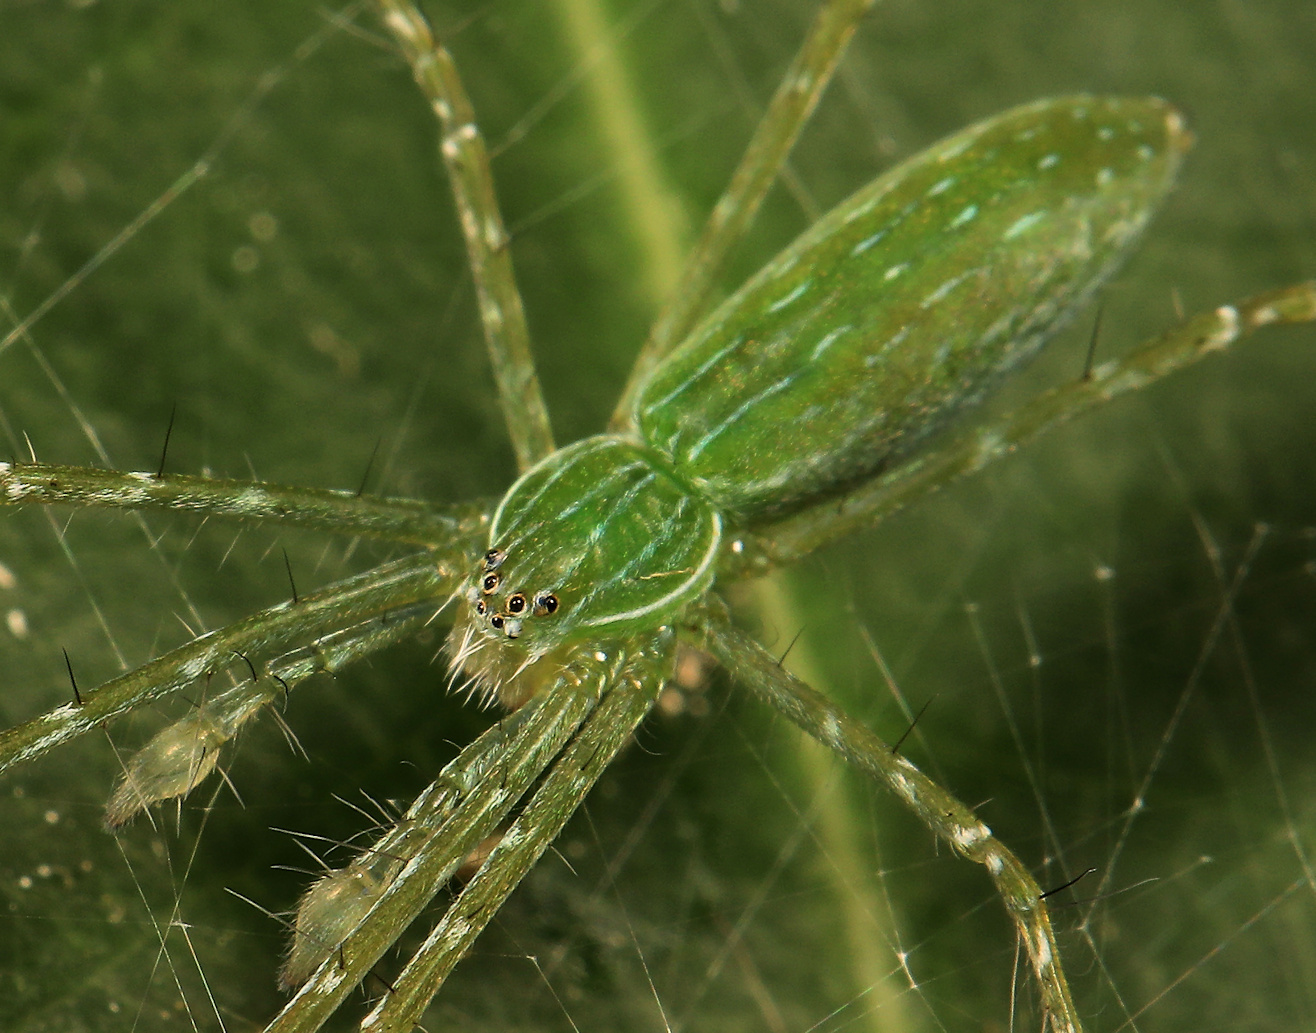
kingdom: Animalia
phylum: Arthropoda
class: Arachnida
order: Araneae
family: Pisauridae
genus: Hygropoda
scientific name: Hygropoda tangana
